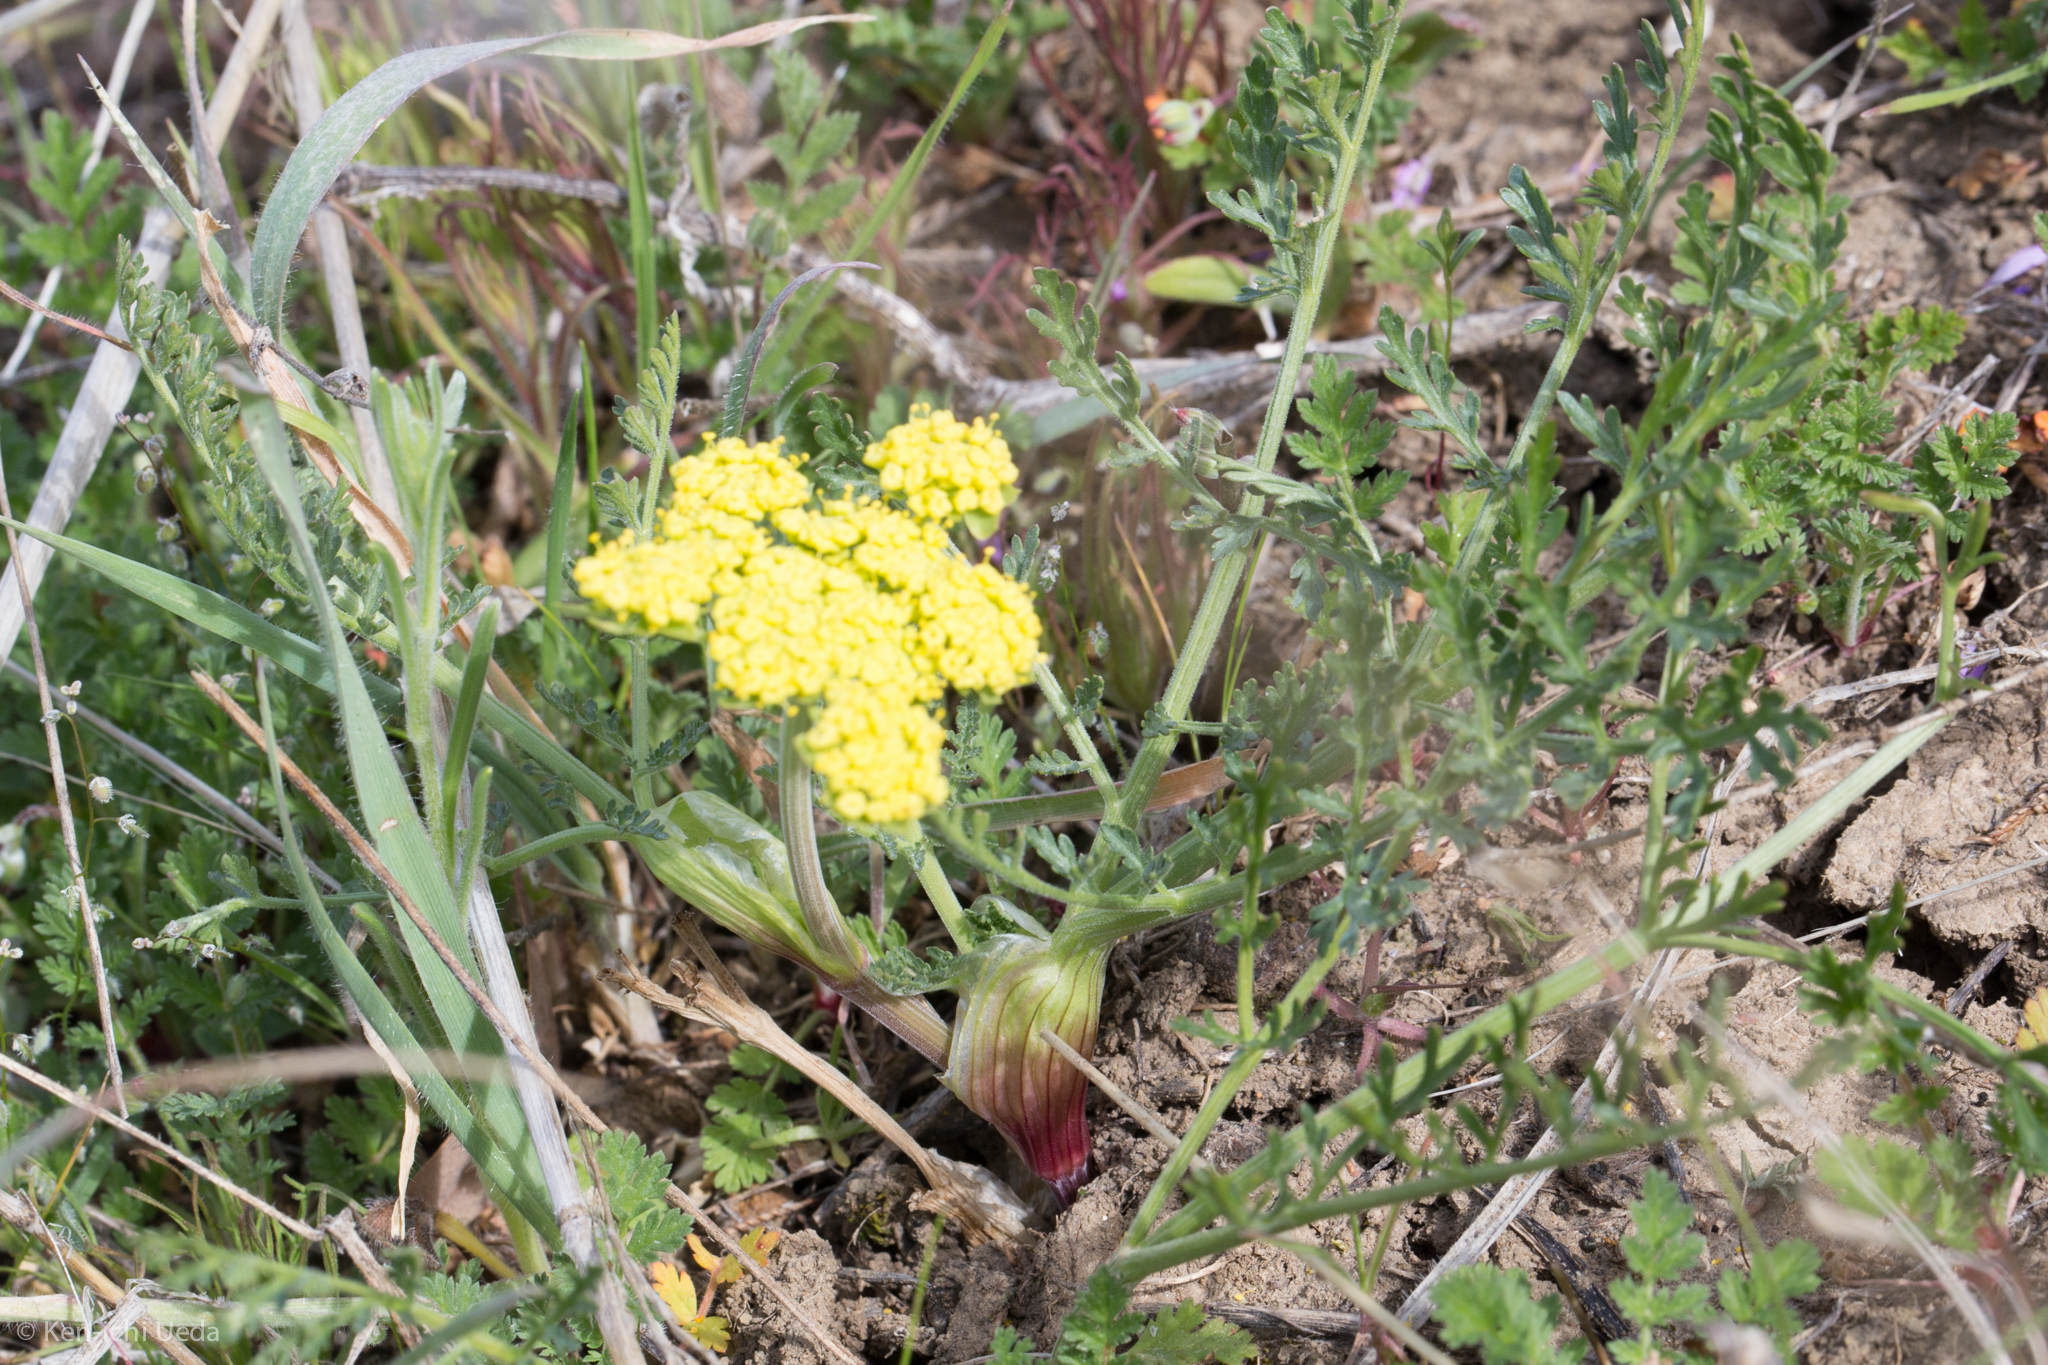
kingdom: Plantae
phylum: Tracheophyta
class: Magnoliopsida
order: Apiales
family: Apiaceae
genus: Lomatium
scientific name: Lomatium utriculatum
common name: Fine-leaf desert-parsley
